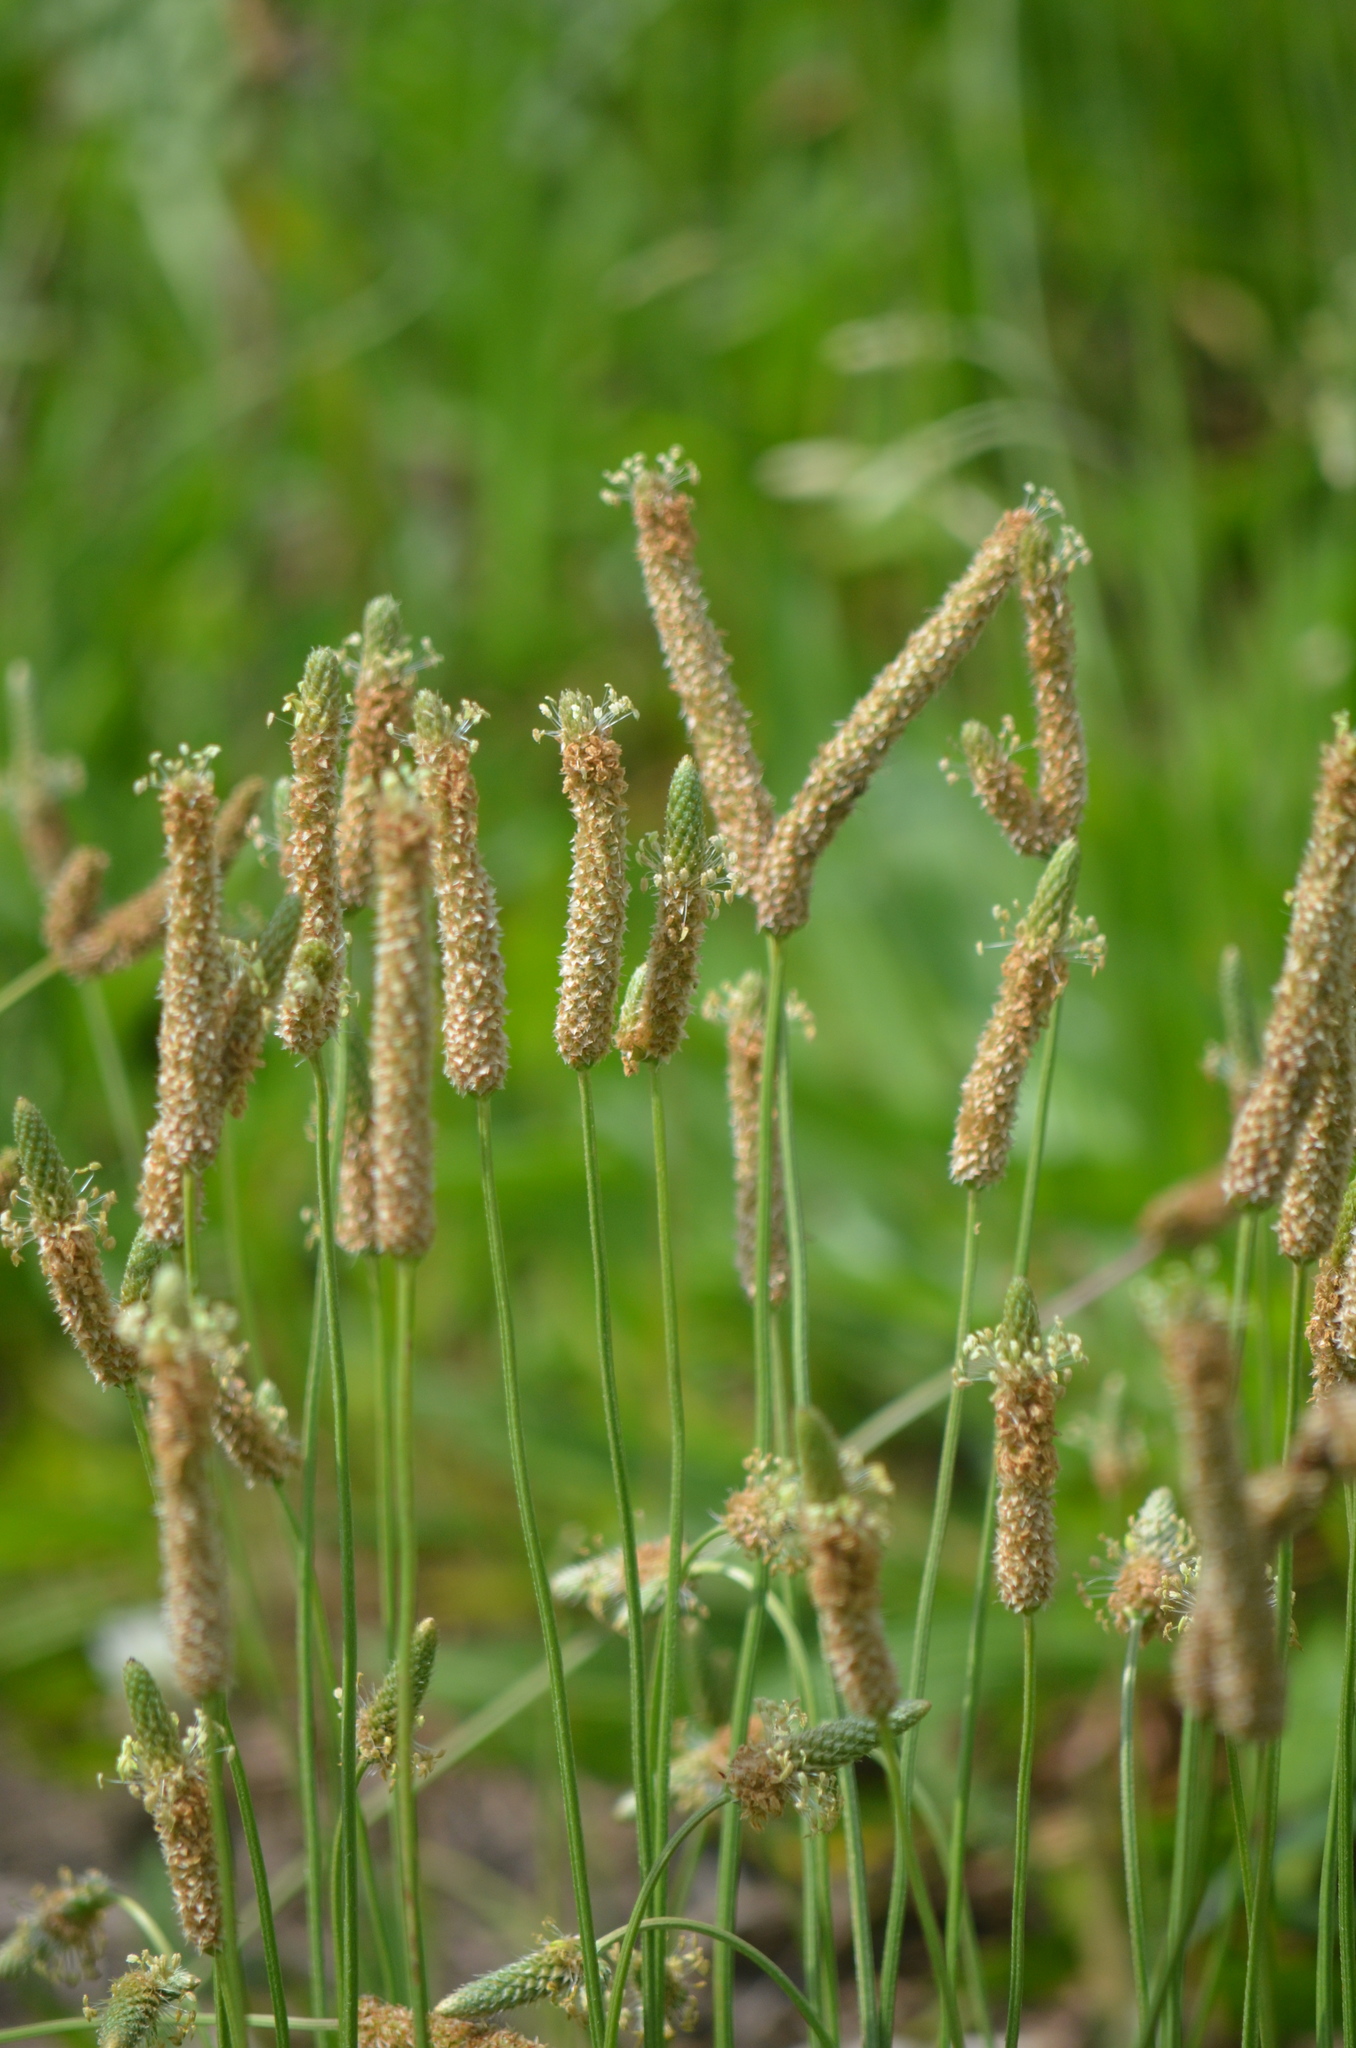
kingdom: Plantae
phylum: Tracheophyta
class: Magnoliopsida
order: Lamiales
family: Plantaginaceae
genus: Plantago
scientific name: Plantago lanceolata
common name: Ribwort plantain
